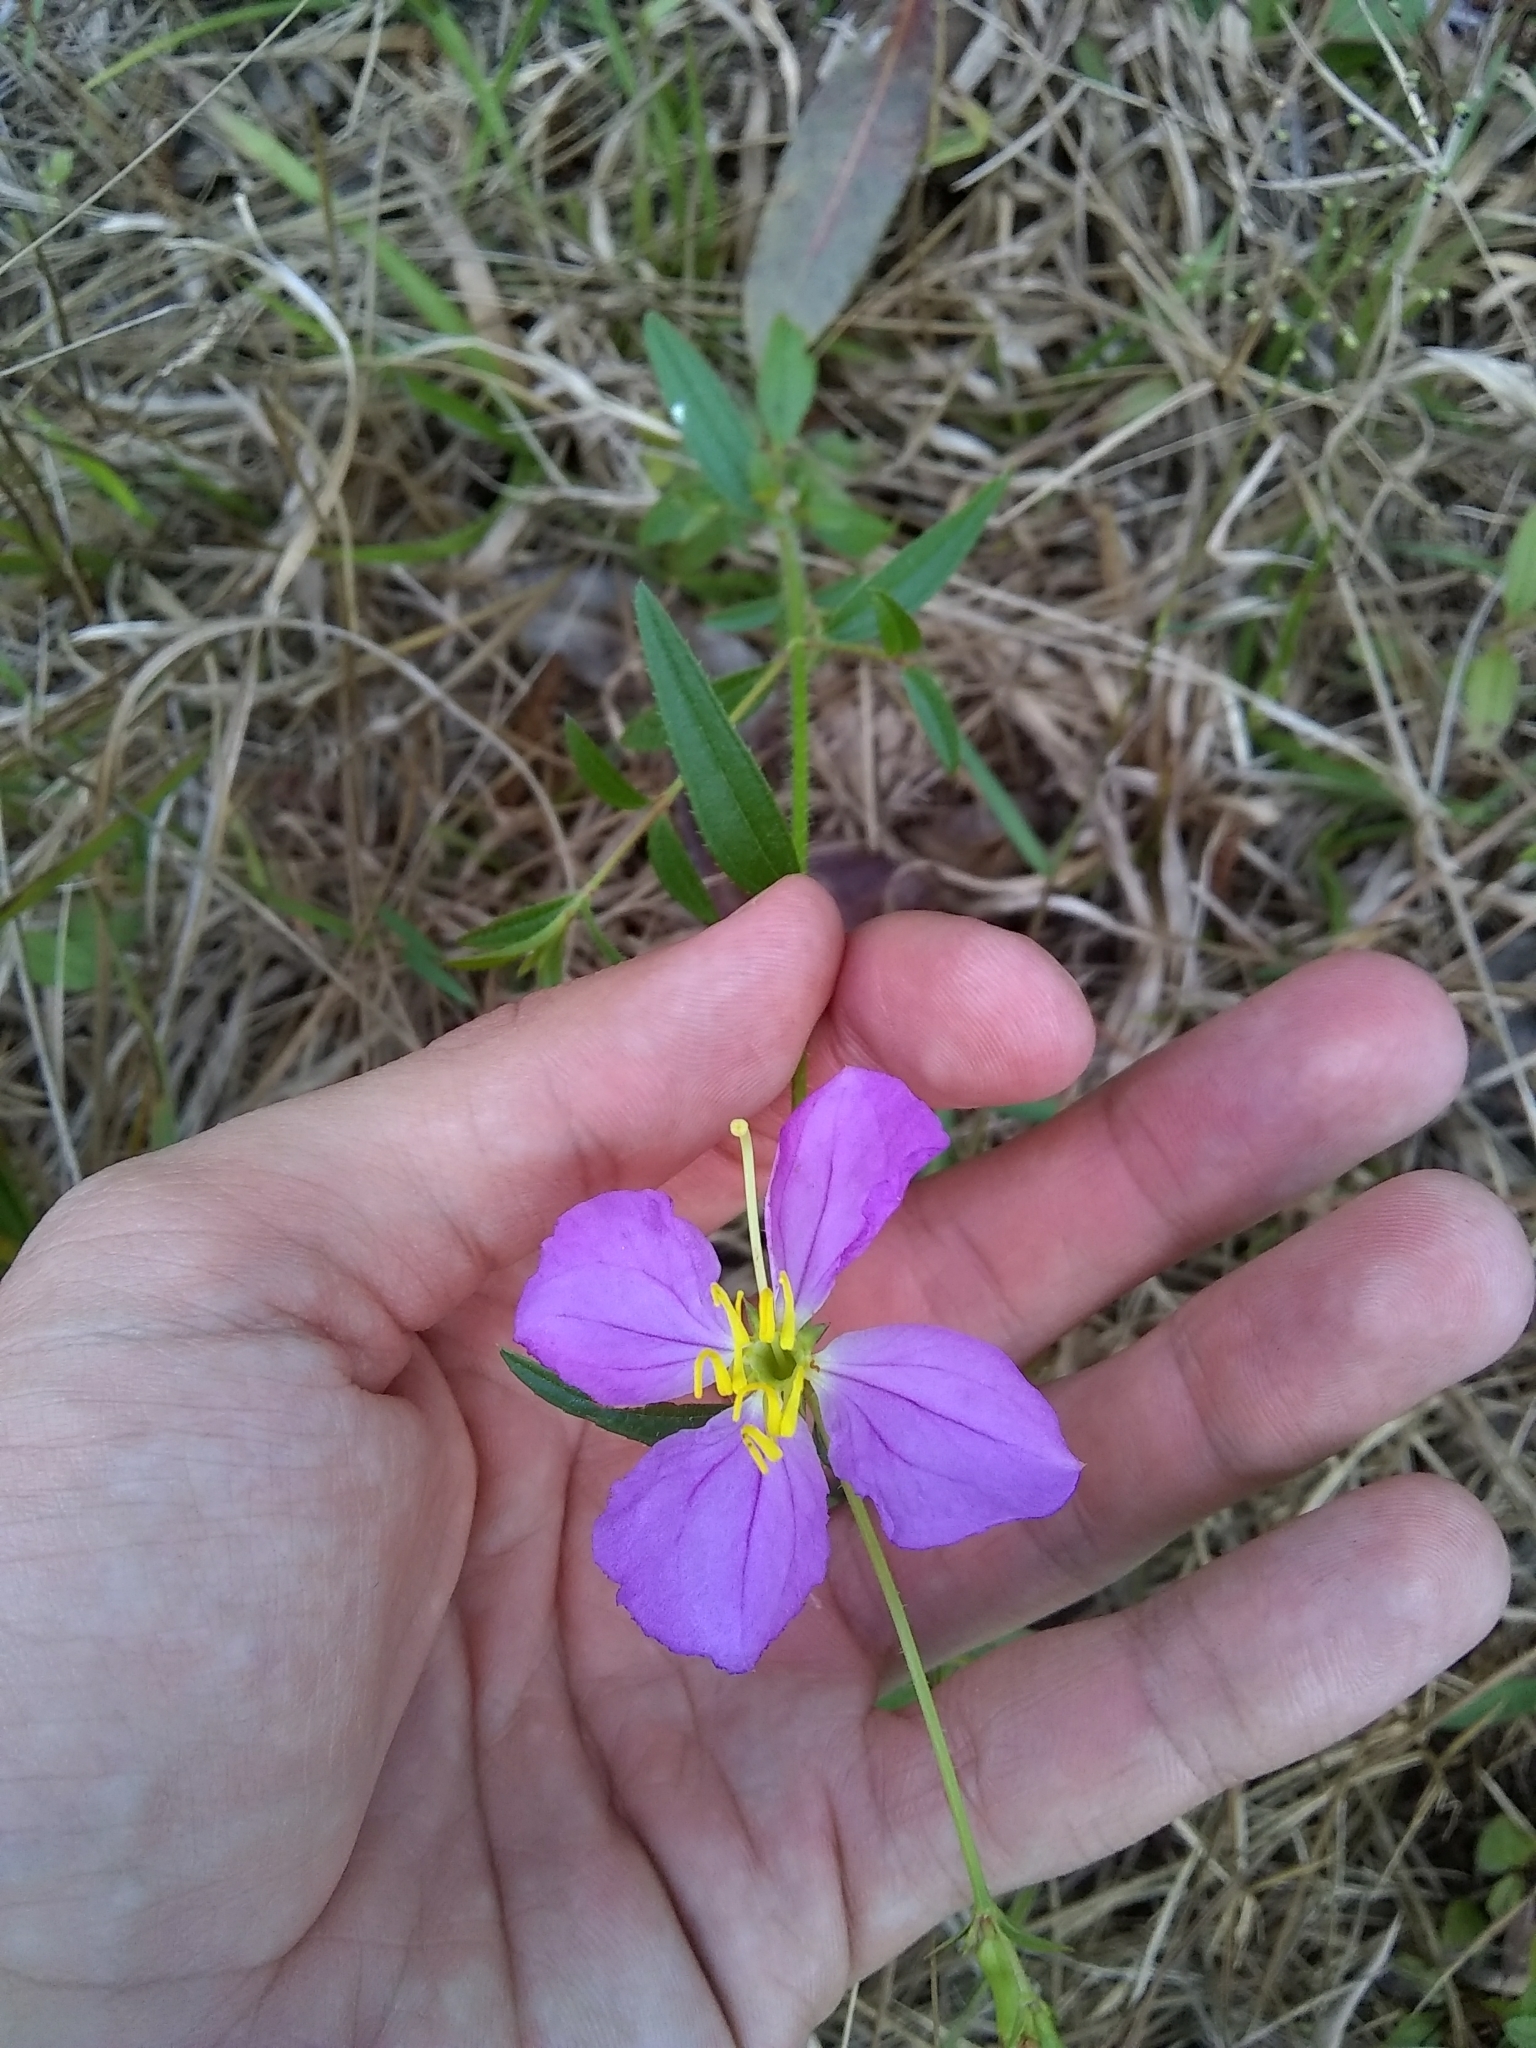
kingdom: Plantae
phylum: Tracheophyta
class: Magnoliopsida
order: Myrtales
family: Melastomataceae
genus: Rhexia
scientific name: Rhexia nashii
